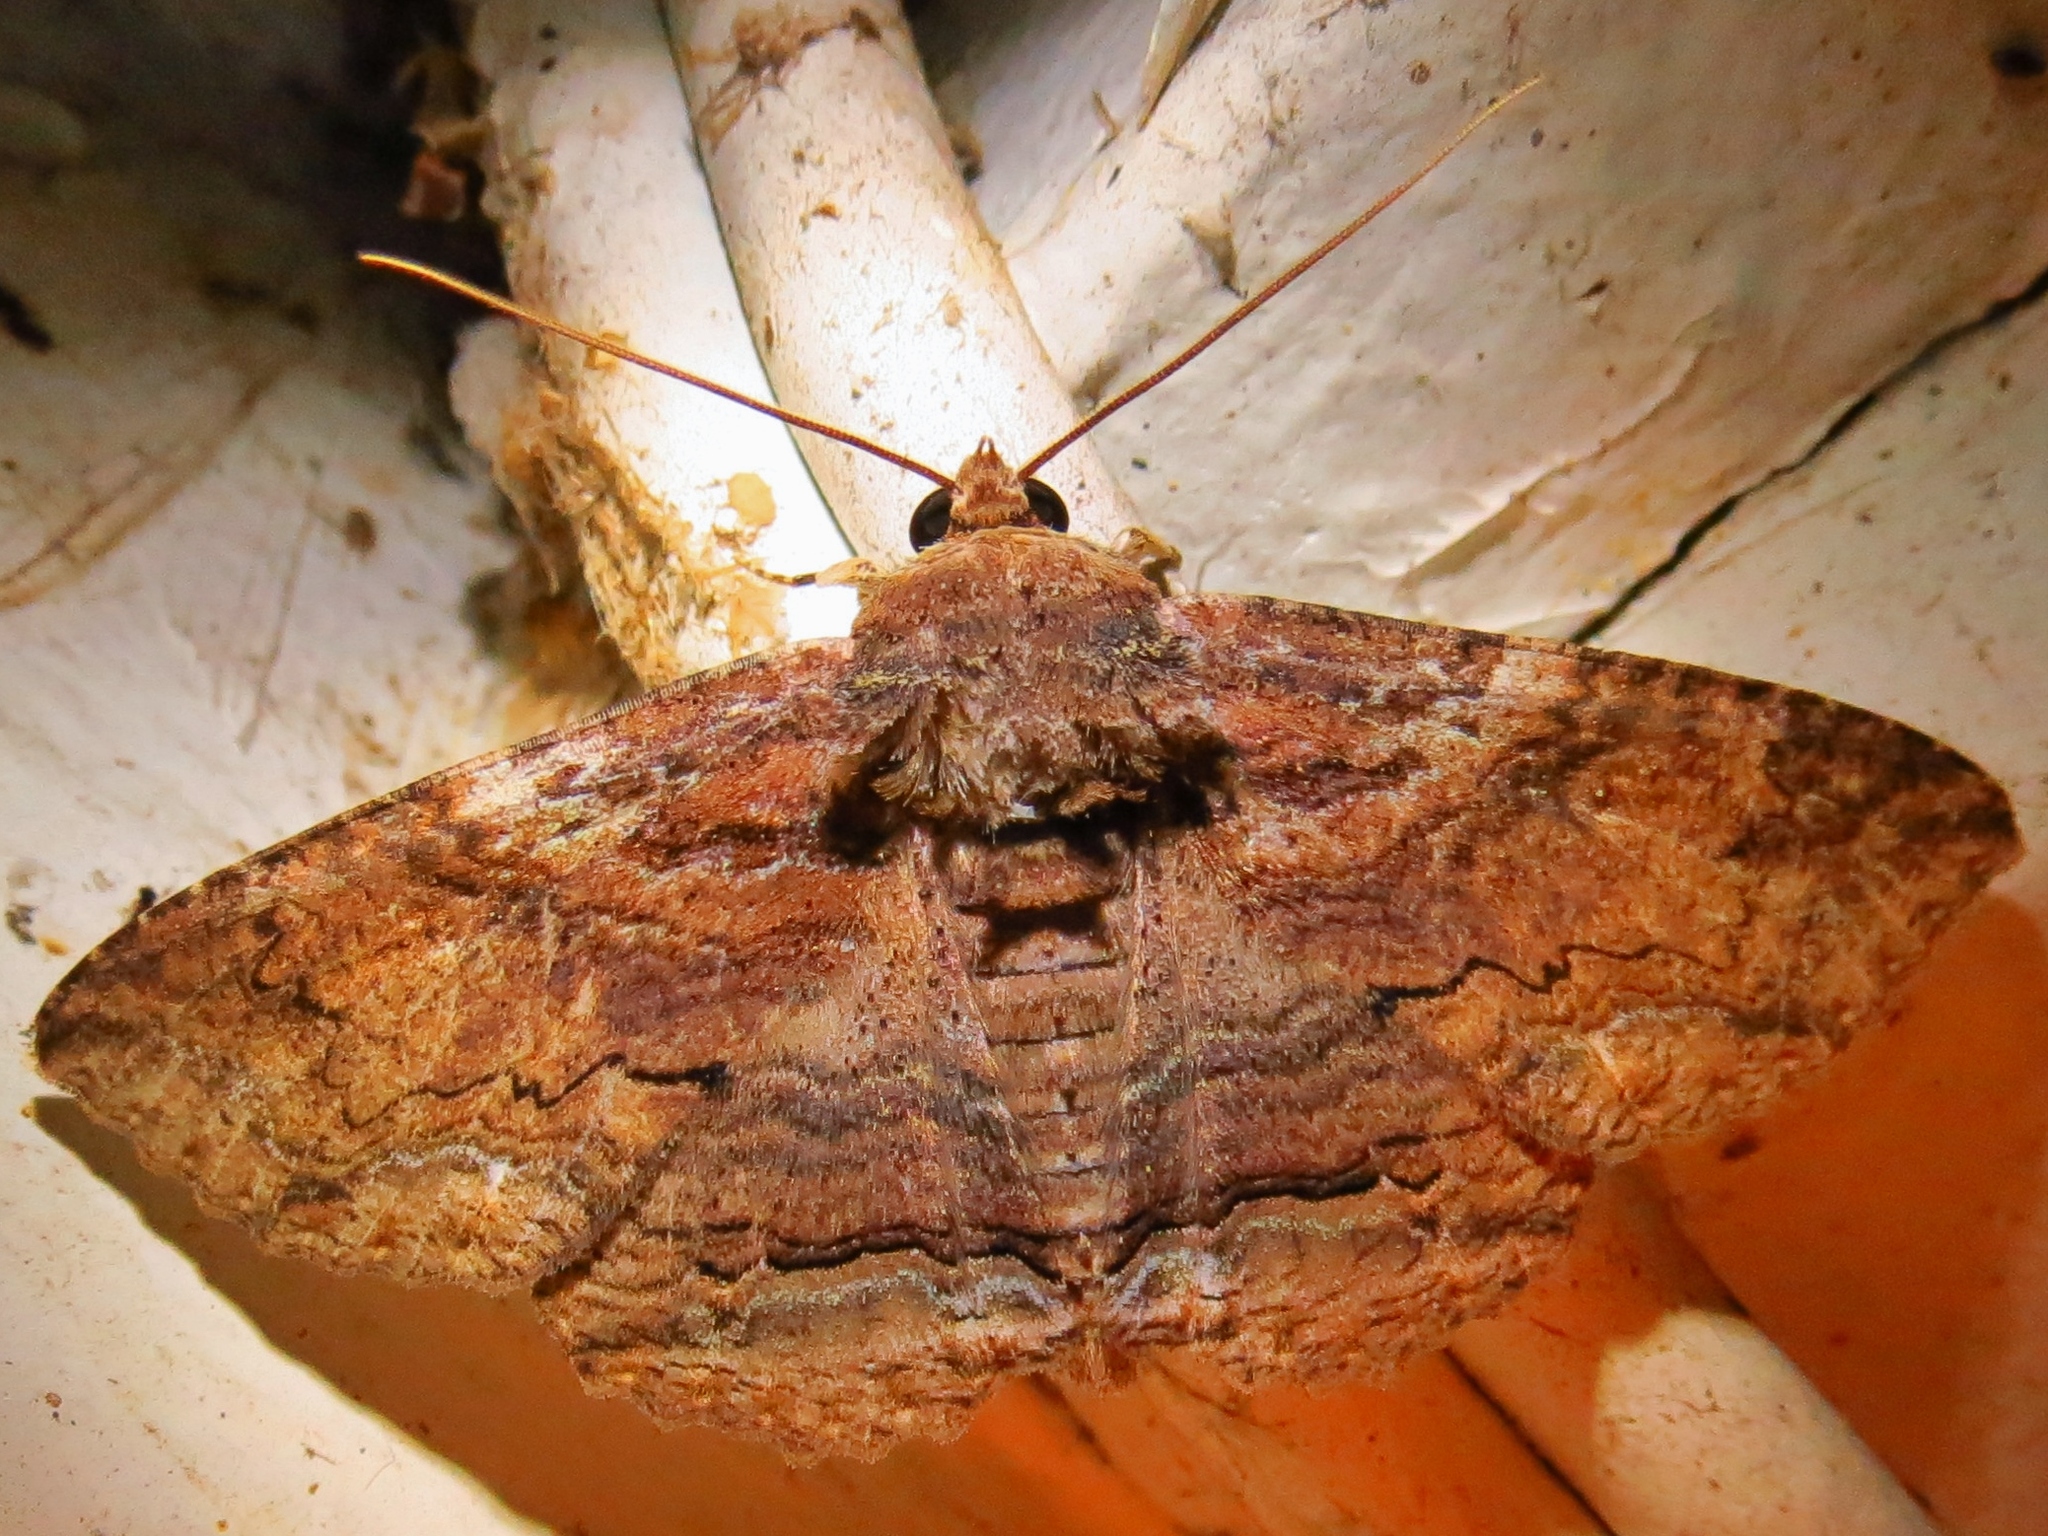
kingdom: Animalia
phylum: Arthropoda
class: Insecta
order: Lepidoptera
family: Erebidae
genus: Zale
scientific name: Zale lunata
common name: Lunate zale moth
